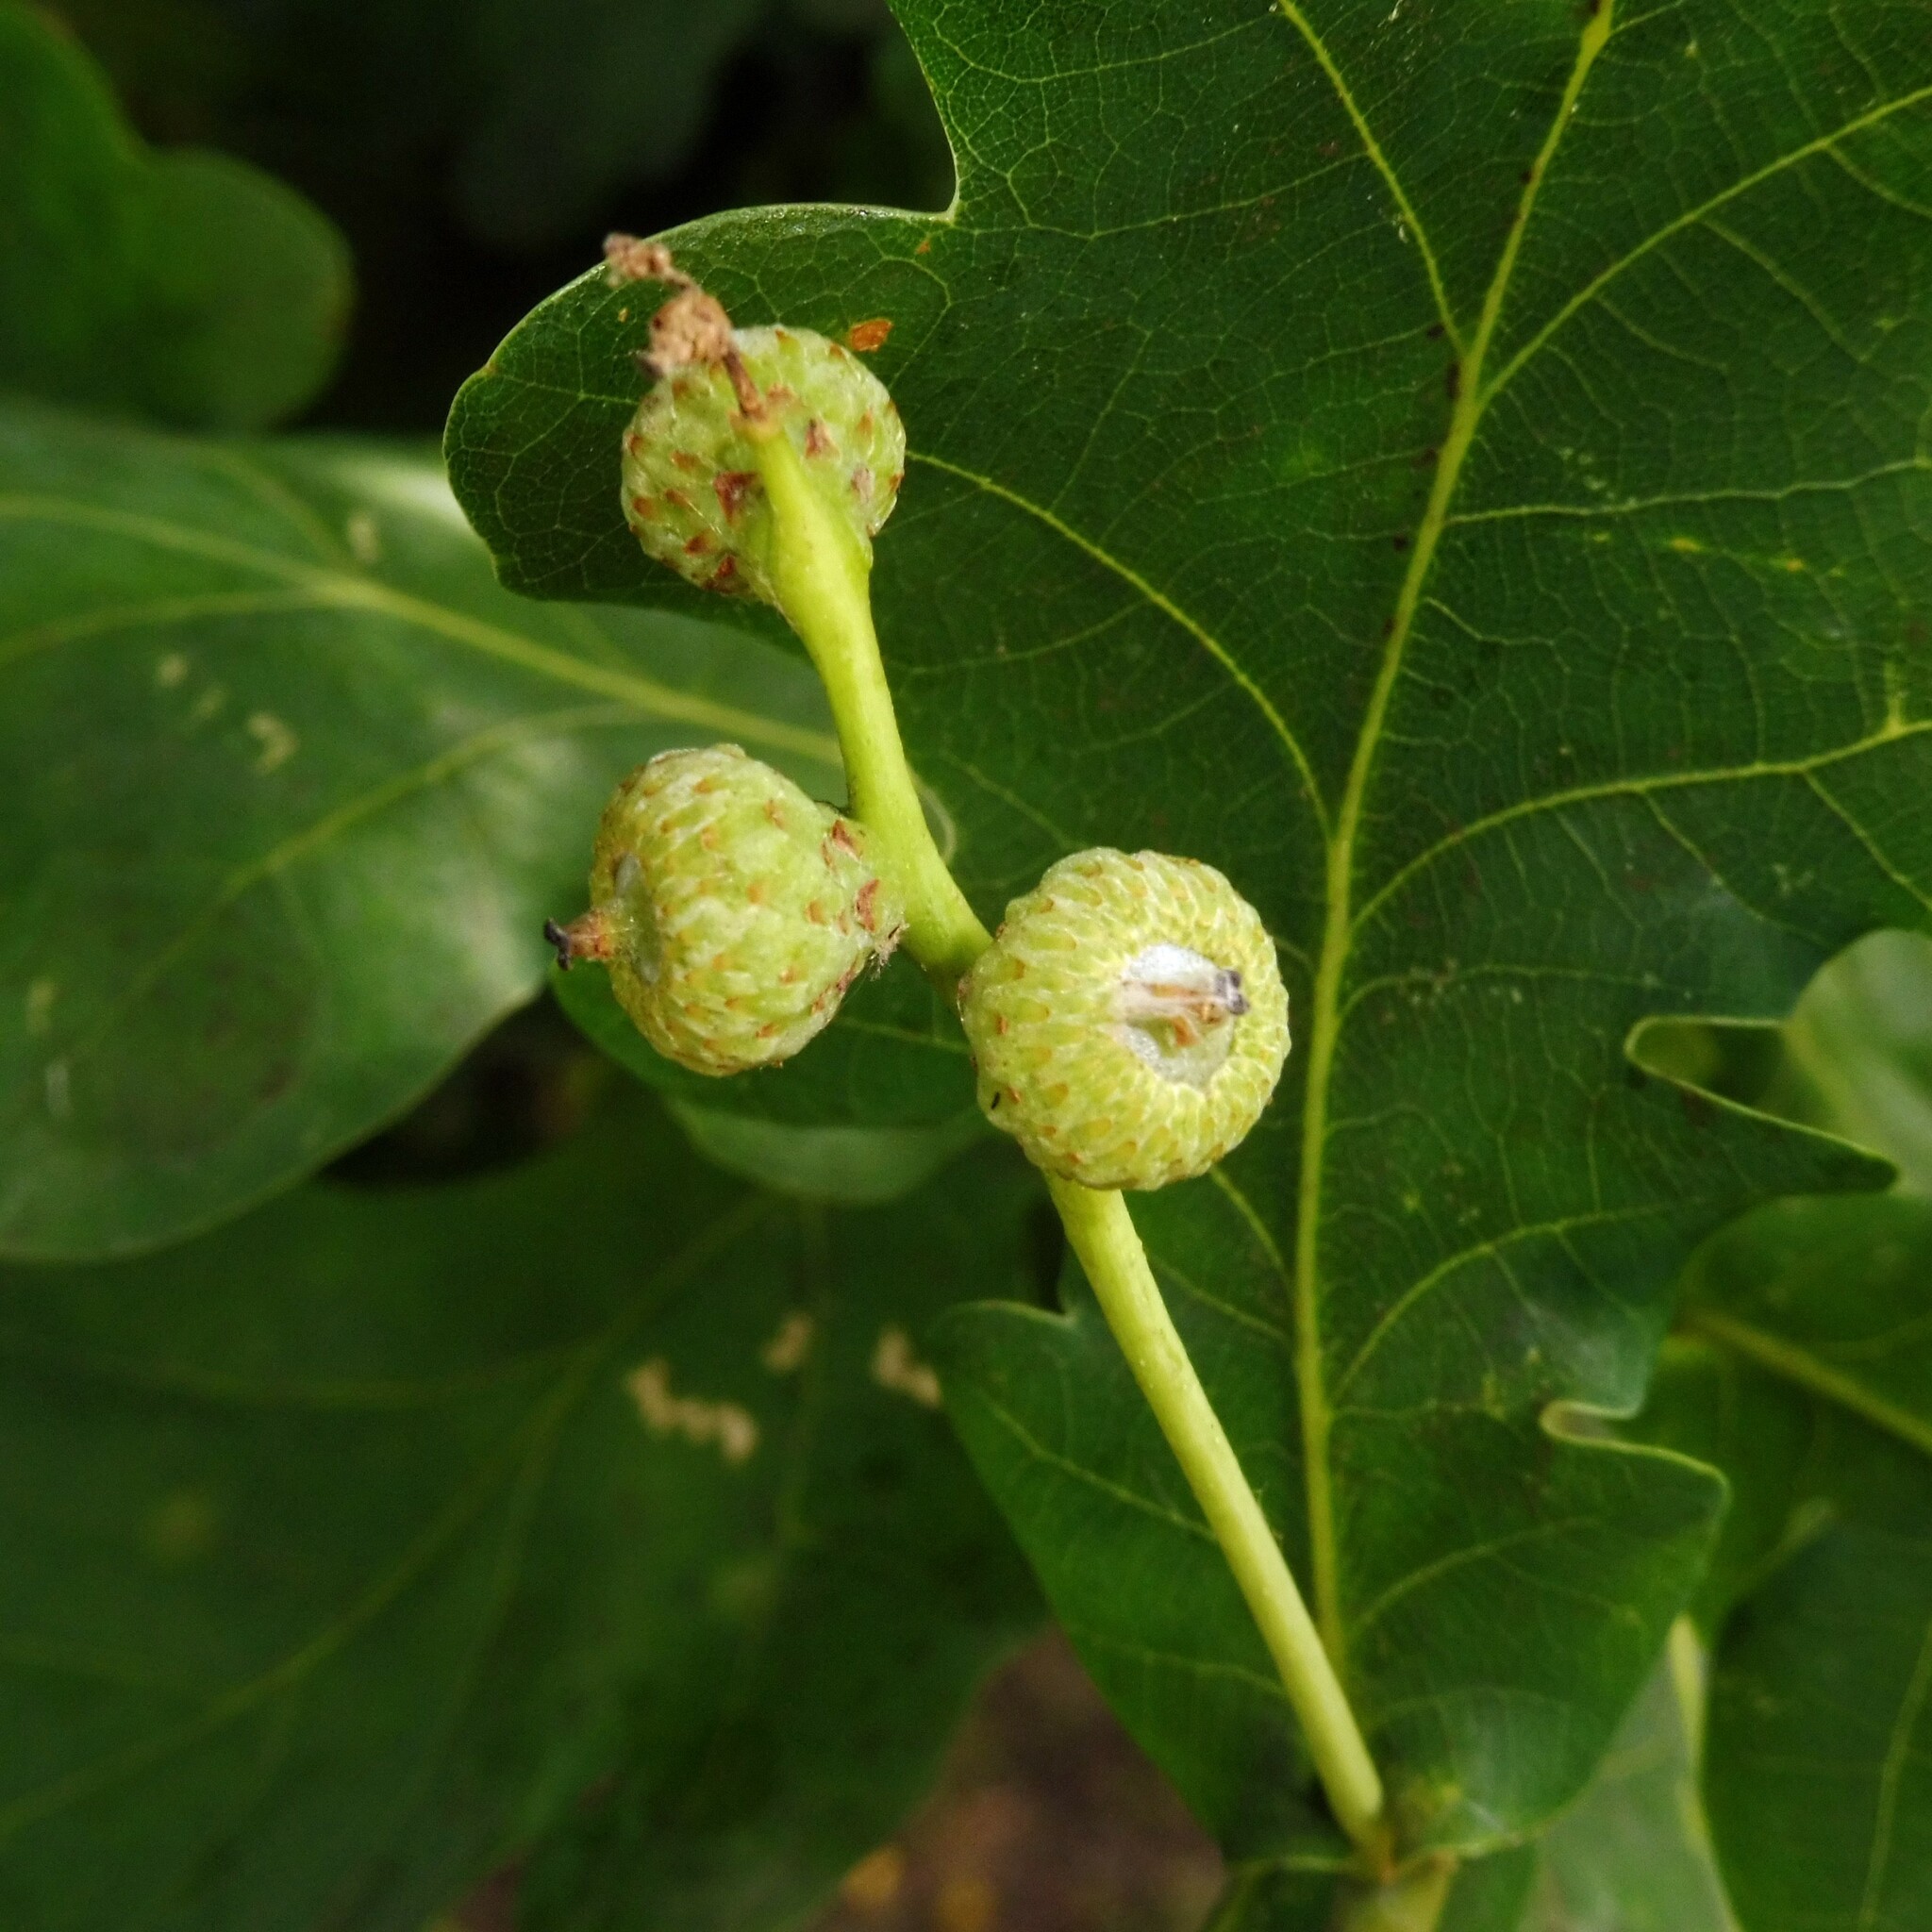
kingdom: Plantae
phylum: Tracheophyta
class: Magnoliopsida
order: Fagales
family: Fagaceae
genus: Quercus
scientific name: Quercus robur
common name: Pedunculate oak
